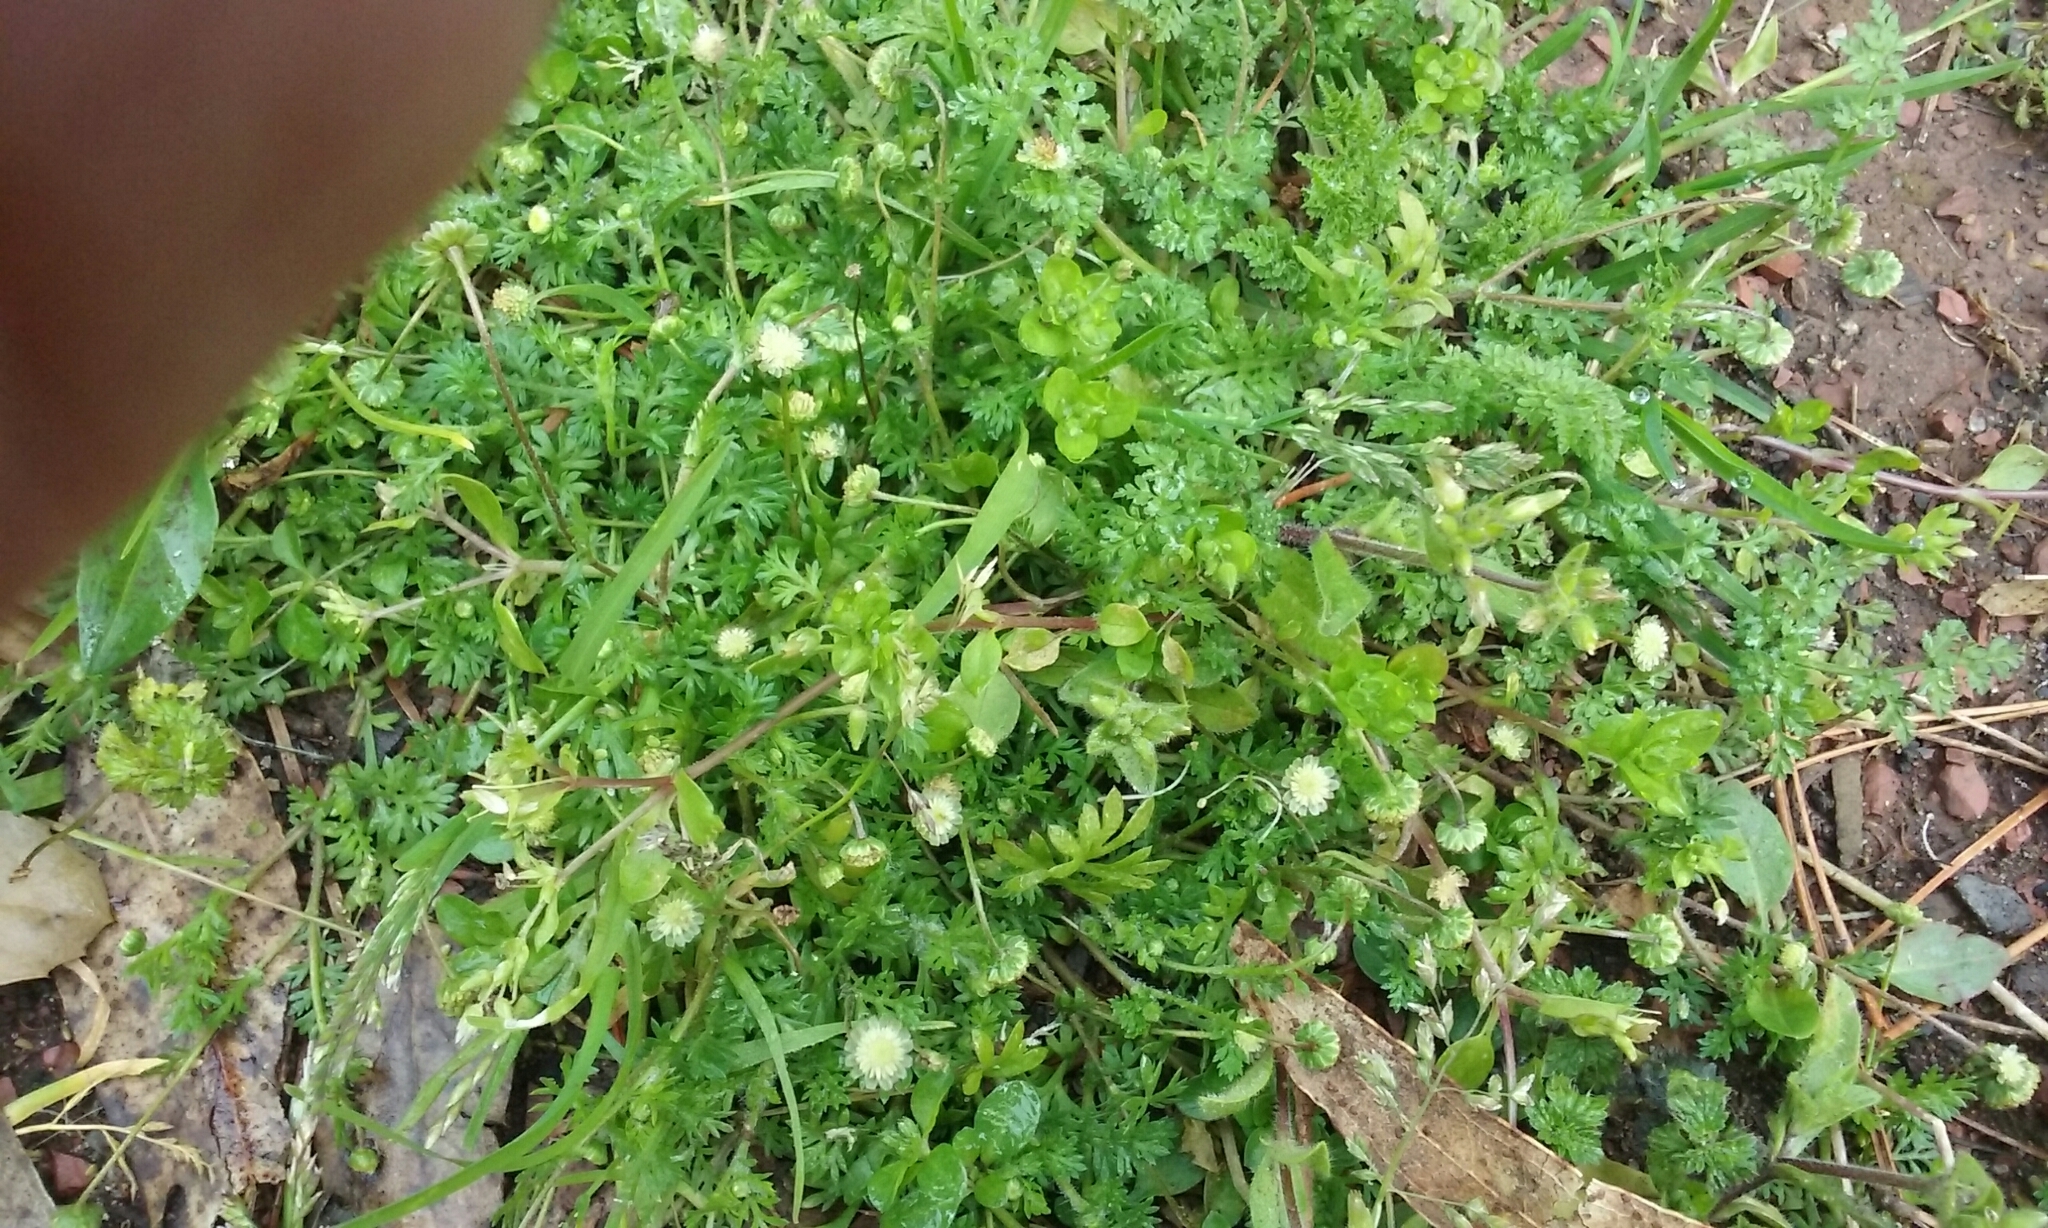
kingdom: Plantae
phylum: Tracheophyta
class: Magnoliopsida
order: Asterales
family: Asteraceae
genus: Cotula
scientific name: Cotula australis
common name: Australian waterbuttons
